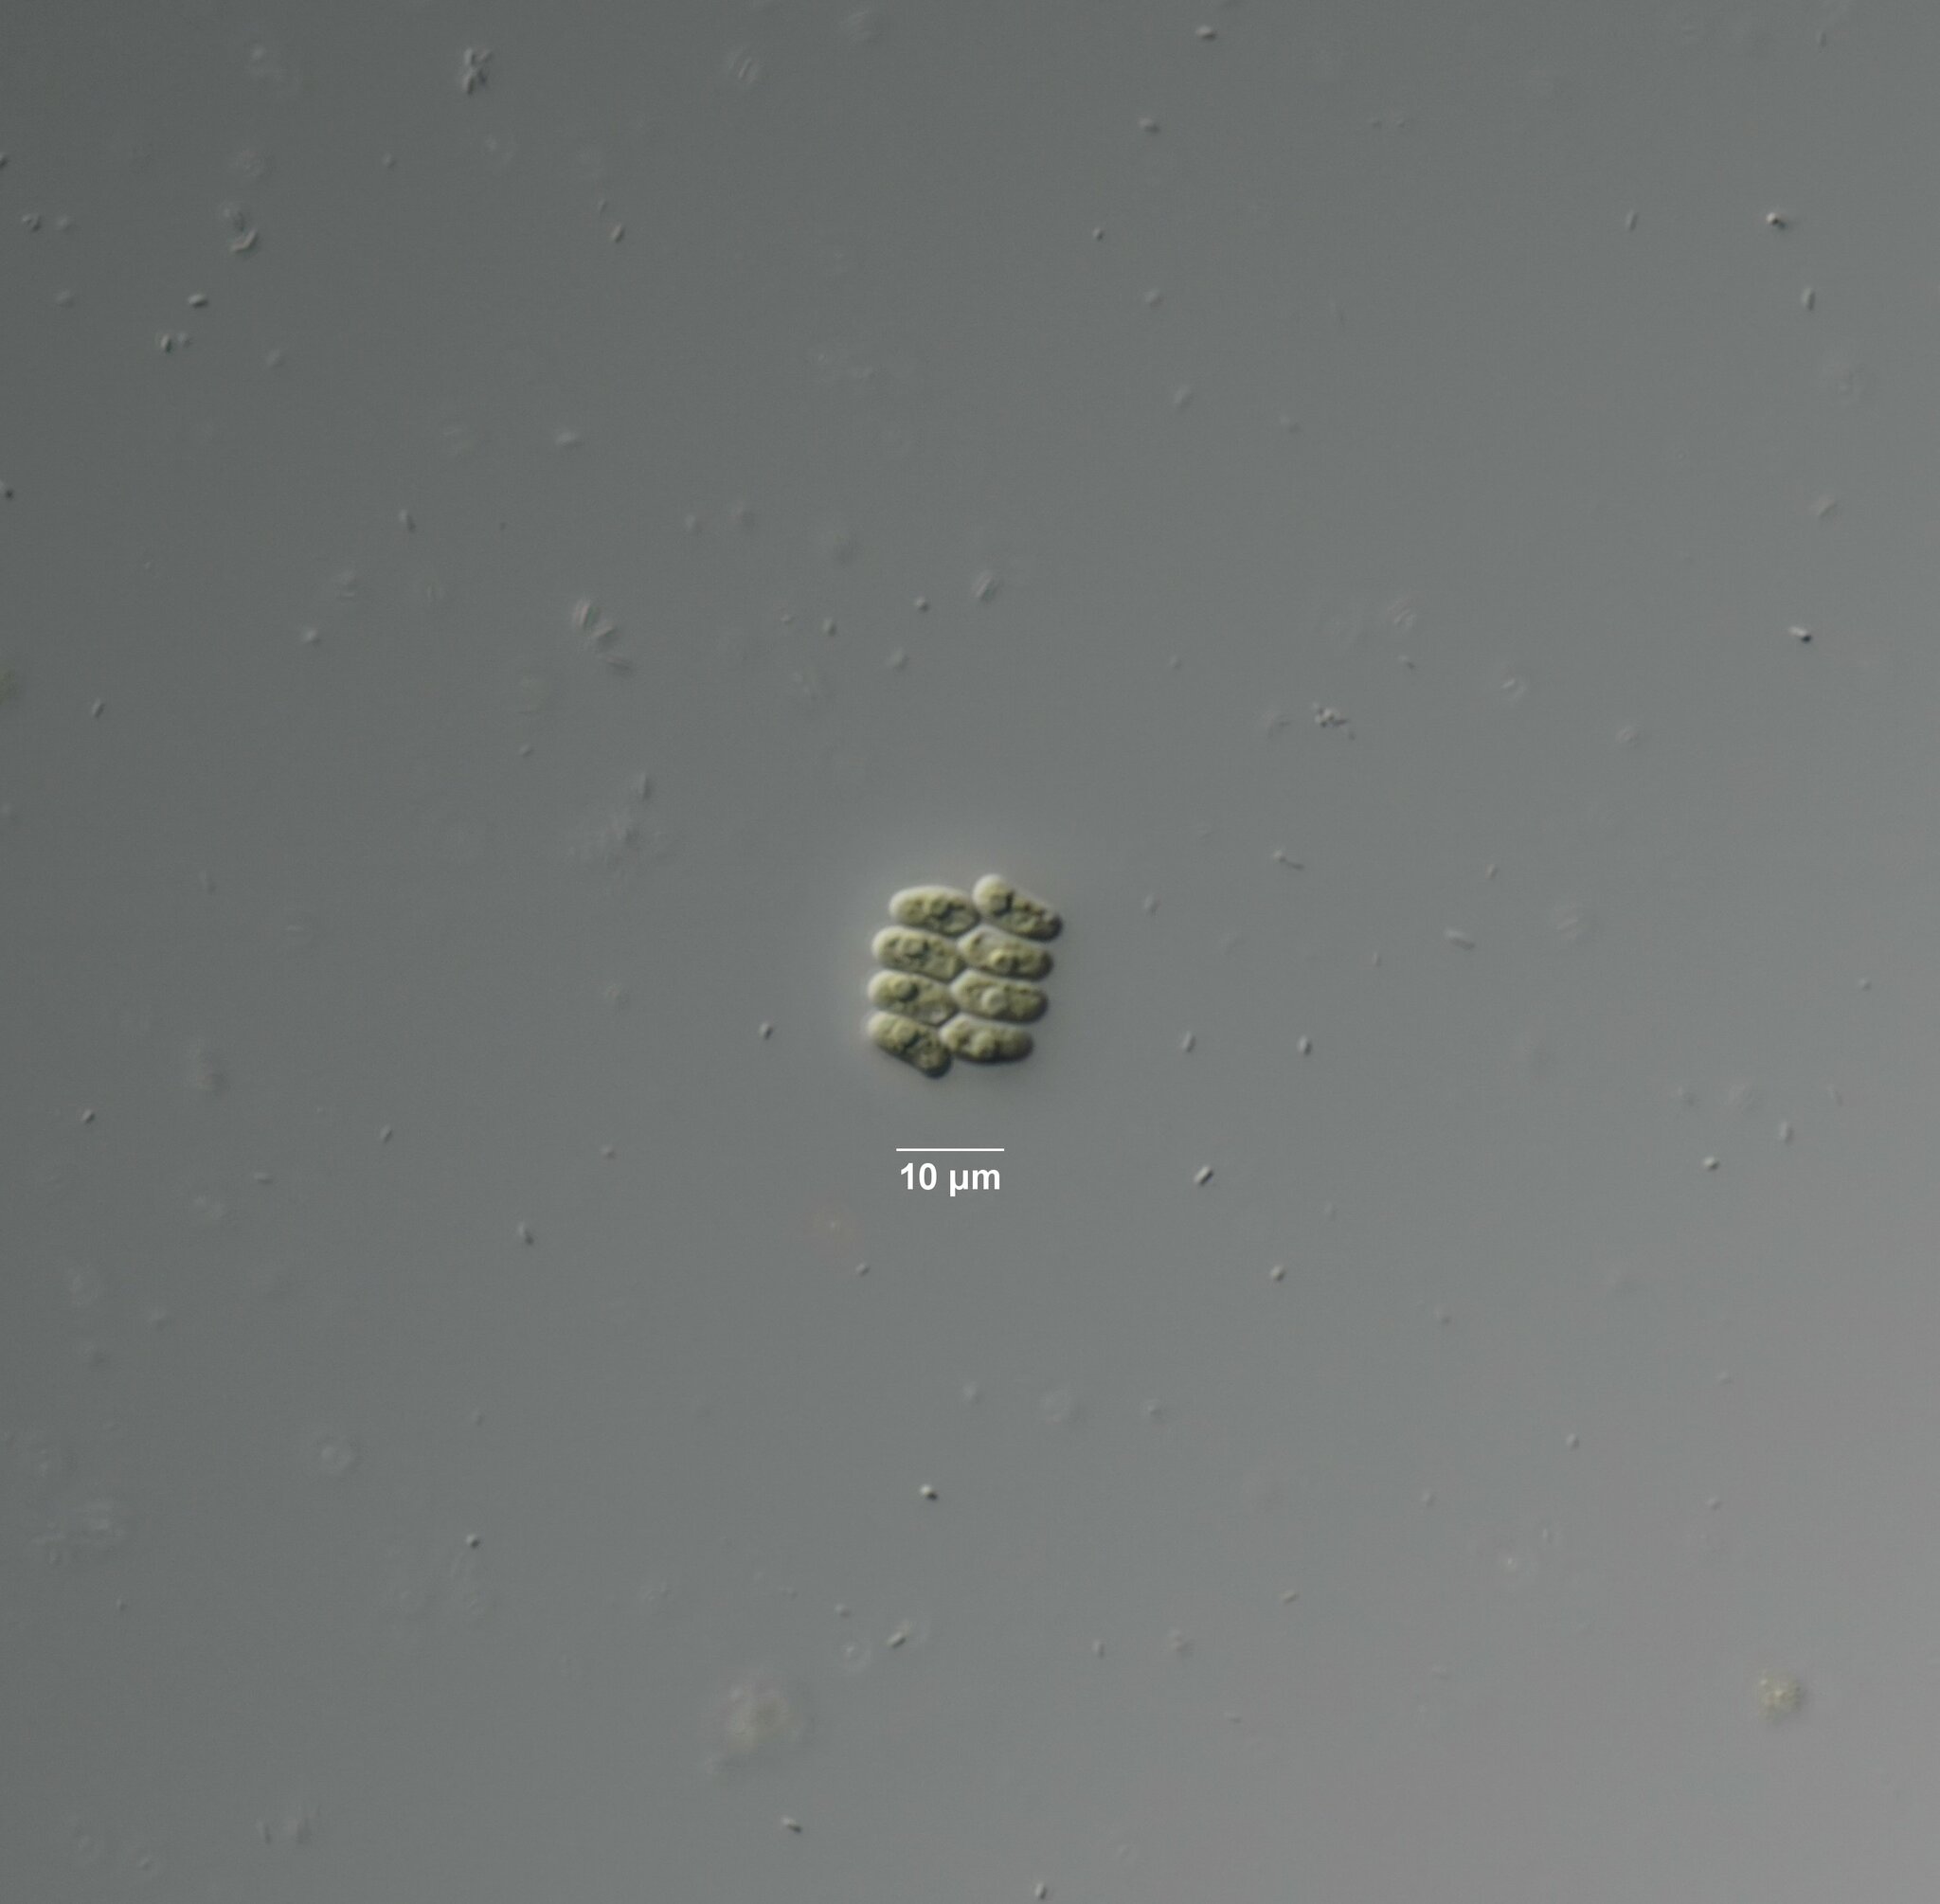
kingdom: Plantae
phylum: Chlorophyta
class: Chlorophyceae
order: Sphaeropleales
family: Scenedesmaceae
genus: Comasiella
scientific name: Comasiella arcuata
